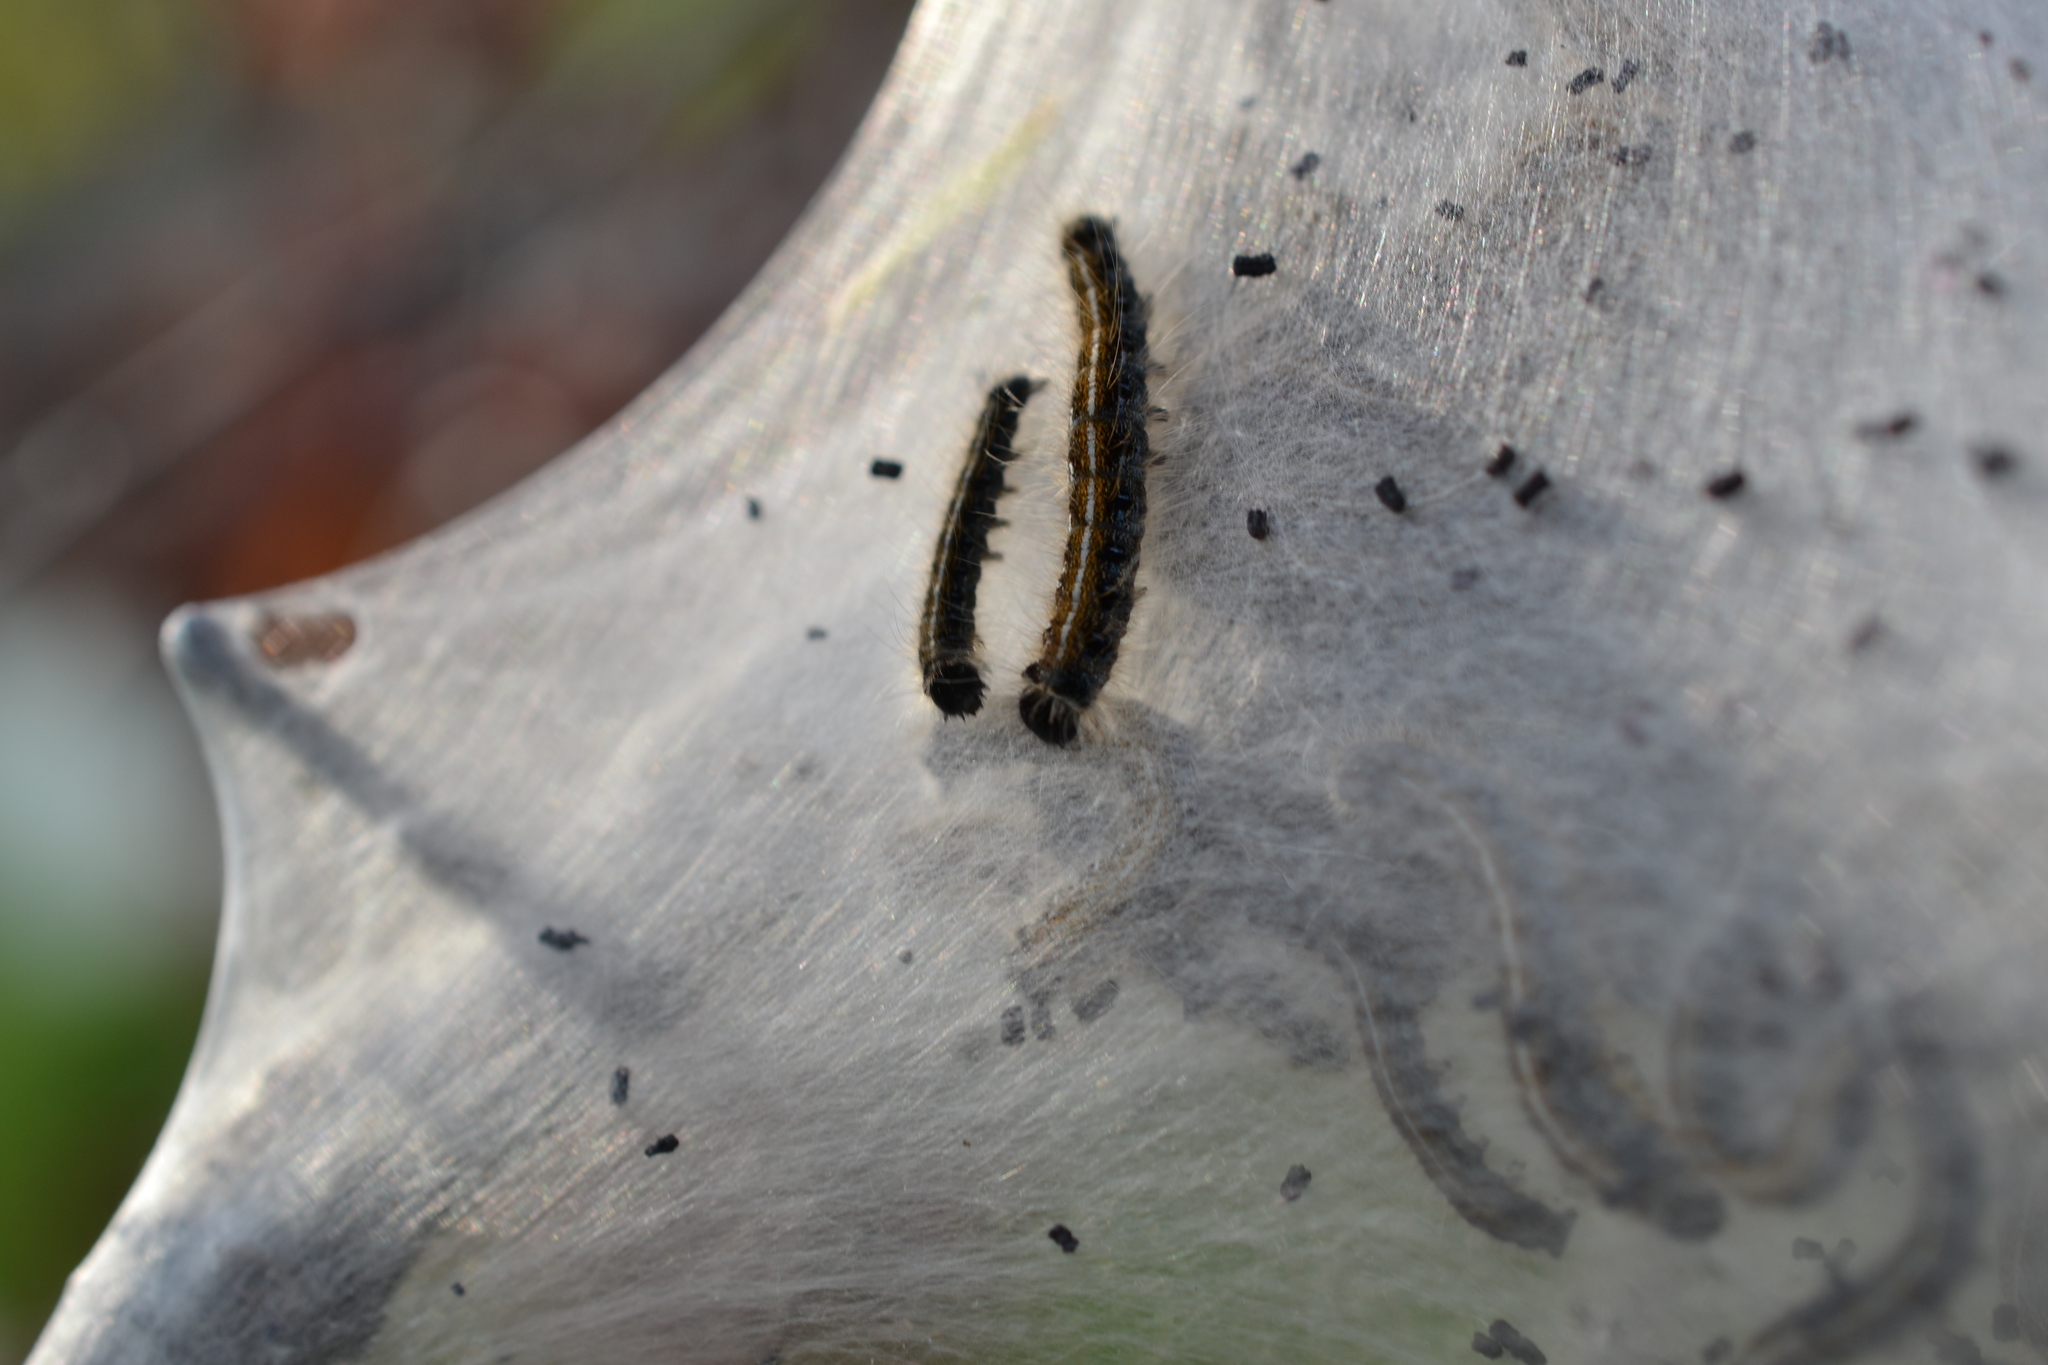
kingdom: Animalia
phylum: Arthropoda
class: Insecta
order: Lepidoptera
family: Lasiocampidae
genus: Malacosoma
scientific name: Malacosoma americana
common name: Eastern tent caterpillar moth
